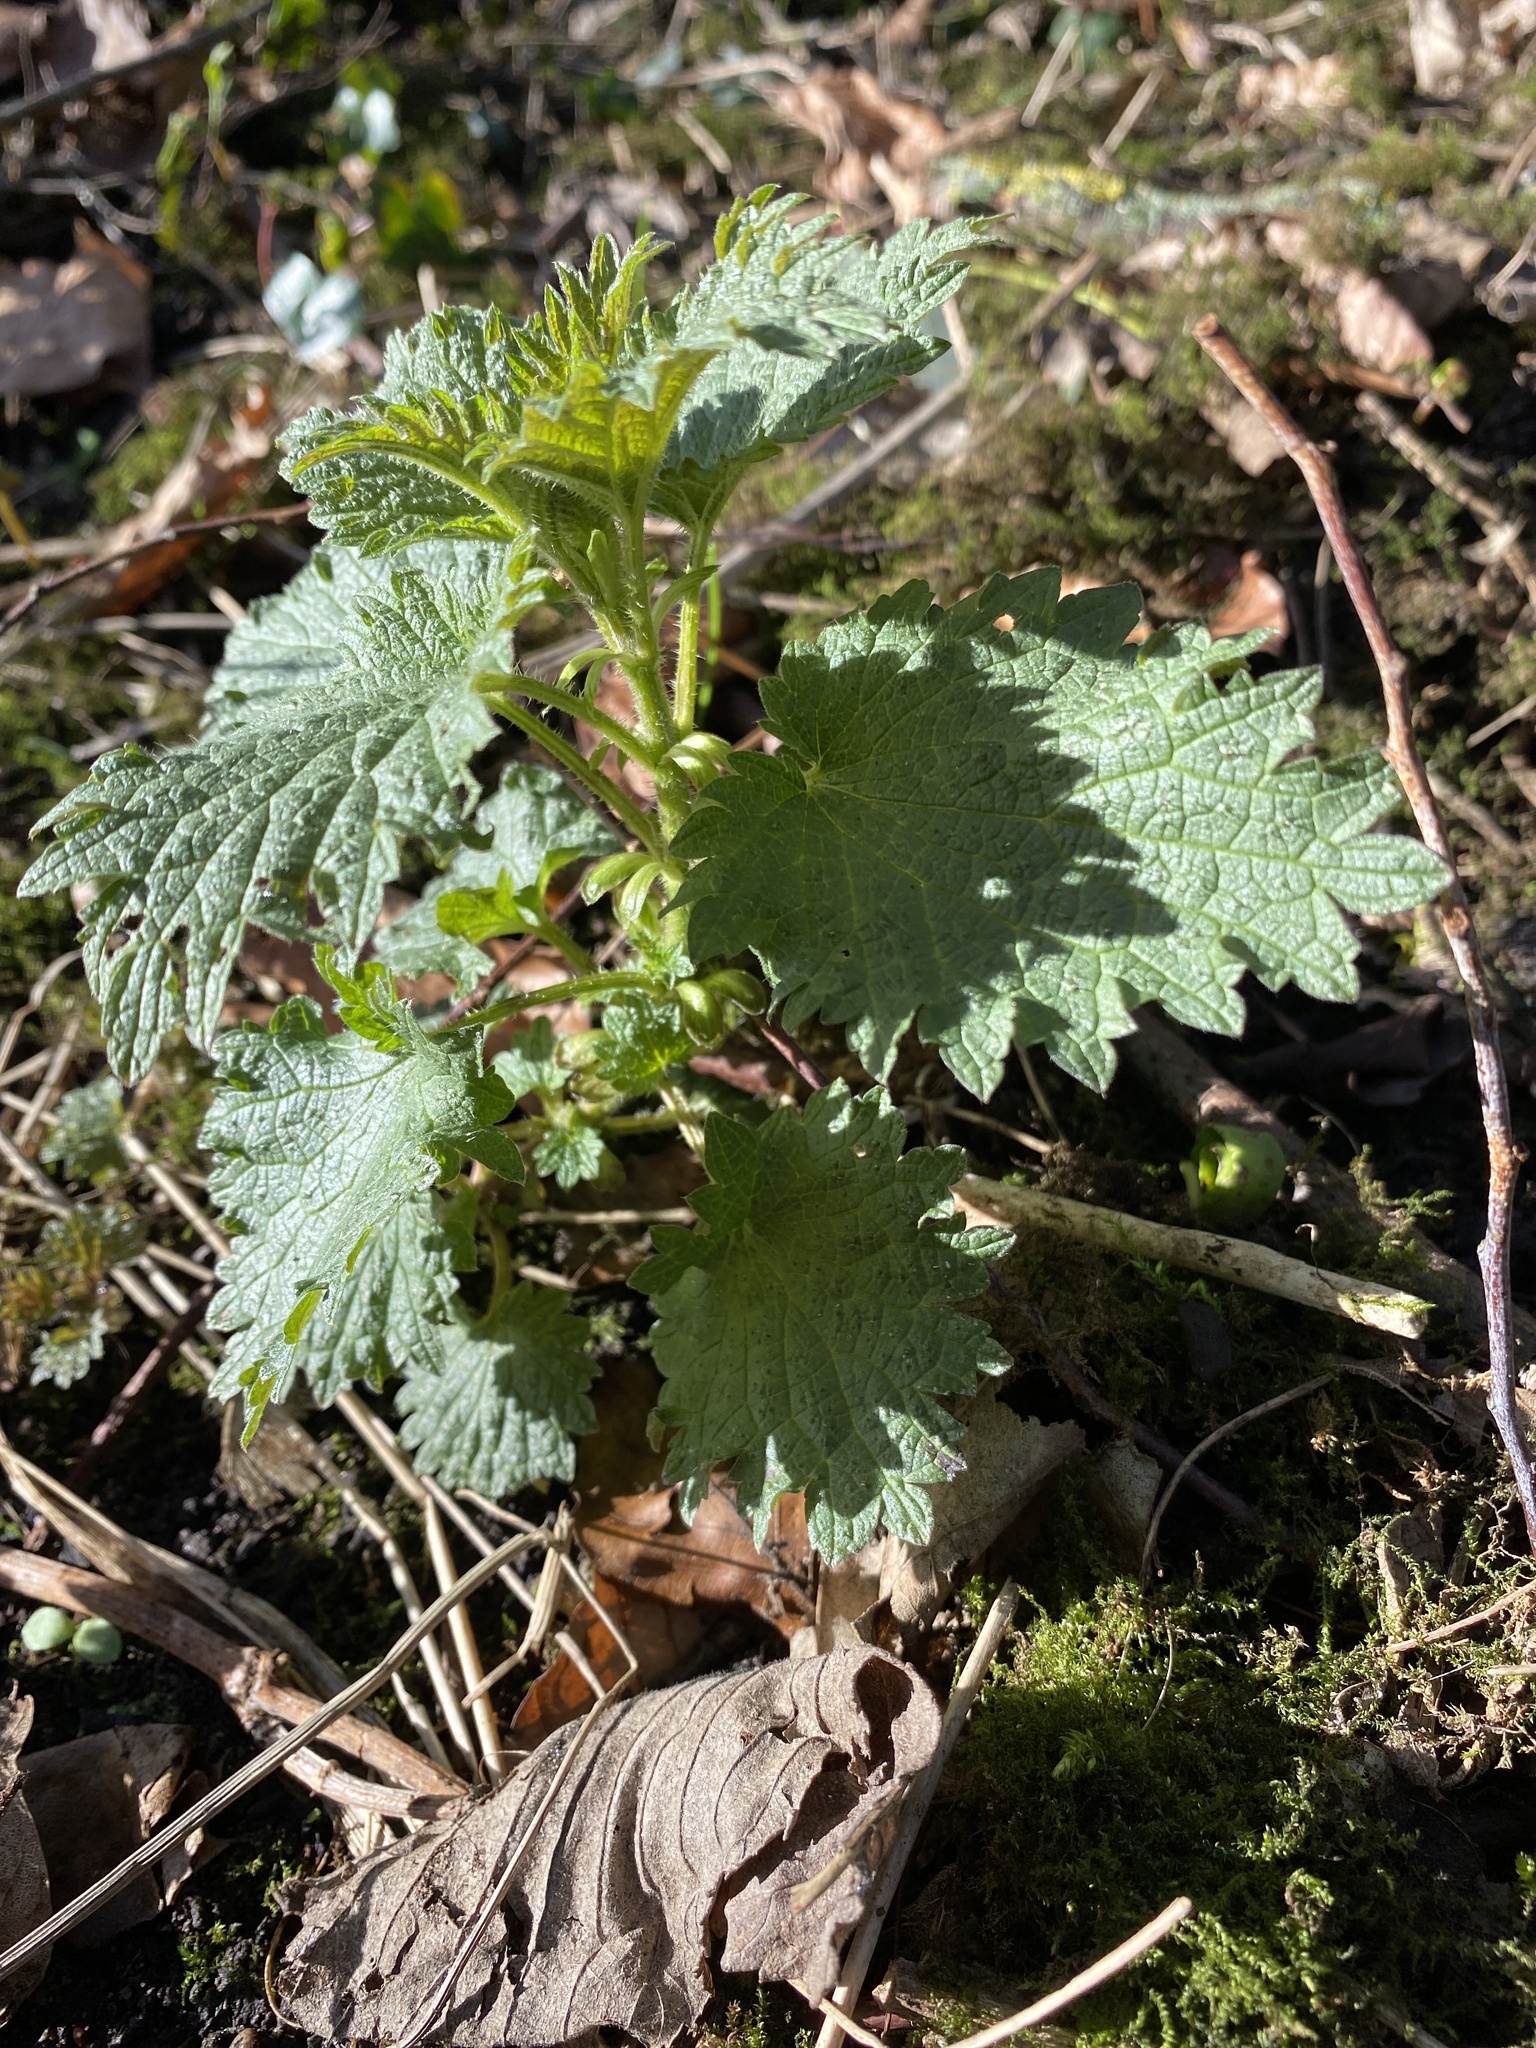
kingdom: Plantae
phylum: Tracheophyta
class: Magnoliopsida
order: Rosales
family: Urticaceae
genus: Urtica
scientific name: Urtica dioica
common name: Common nettle
